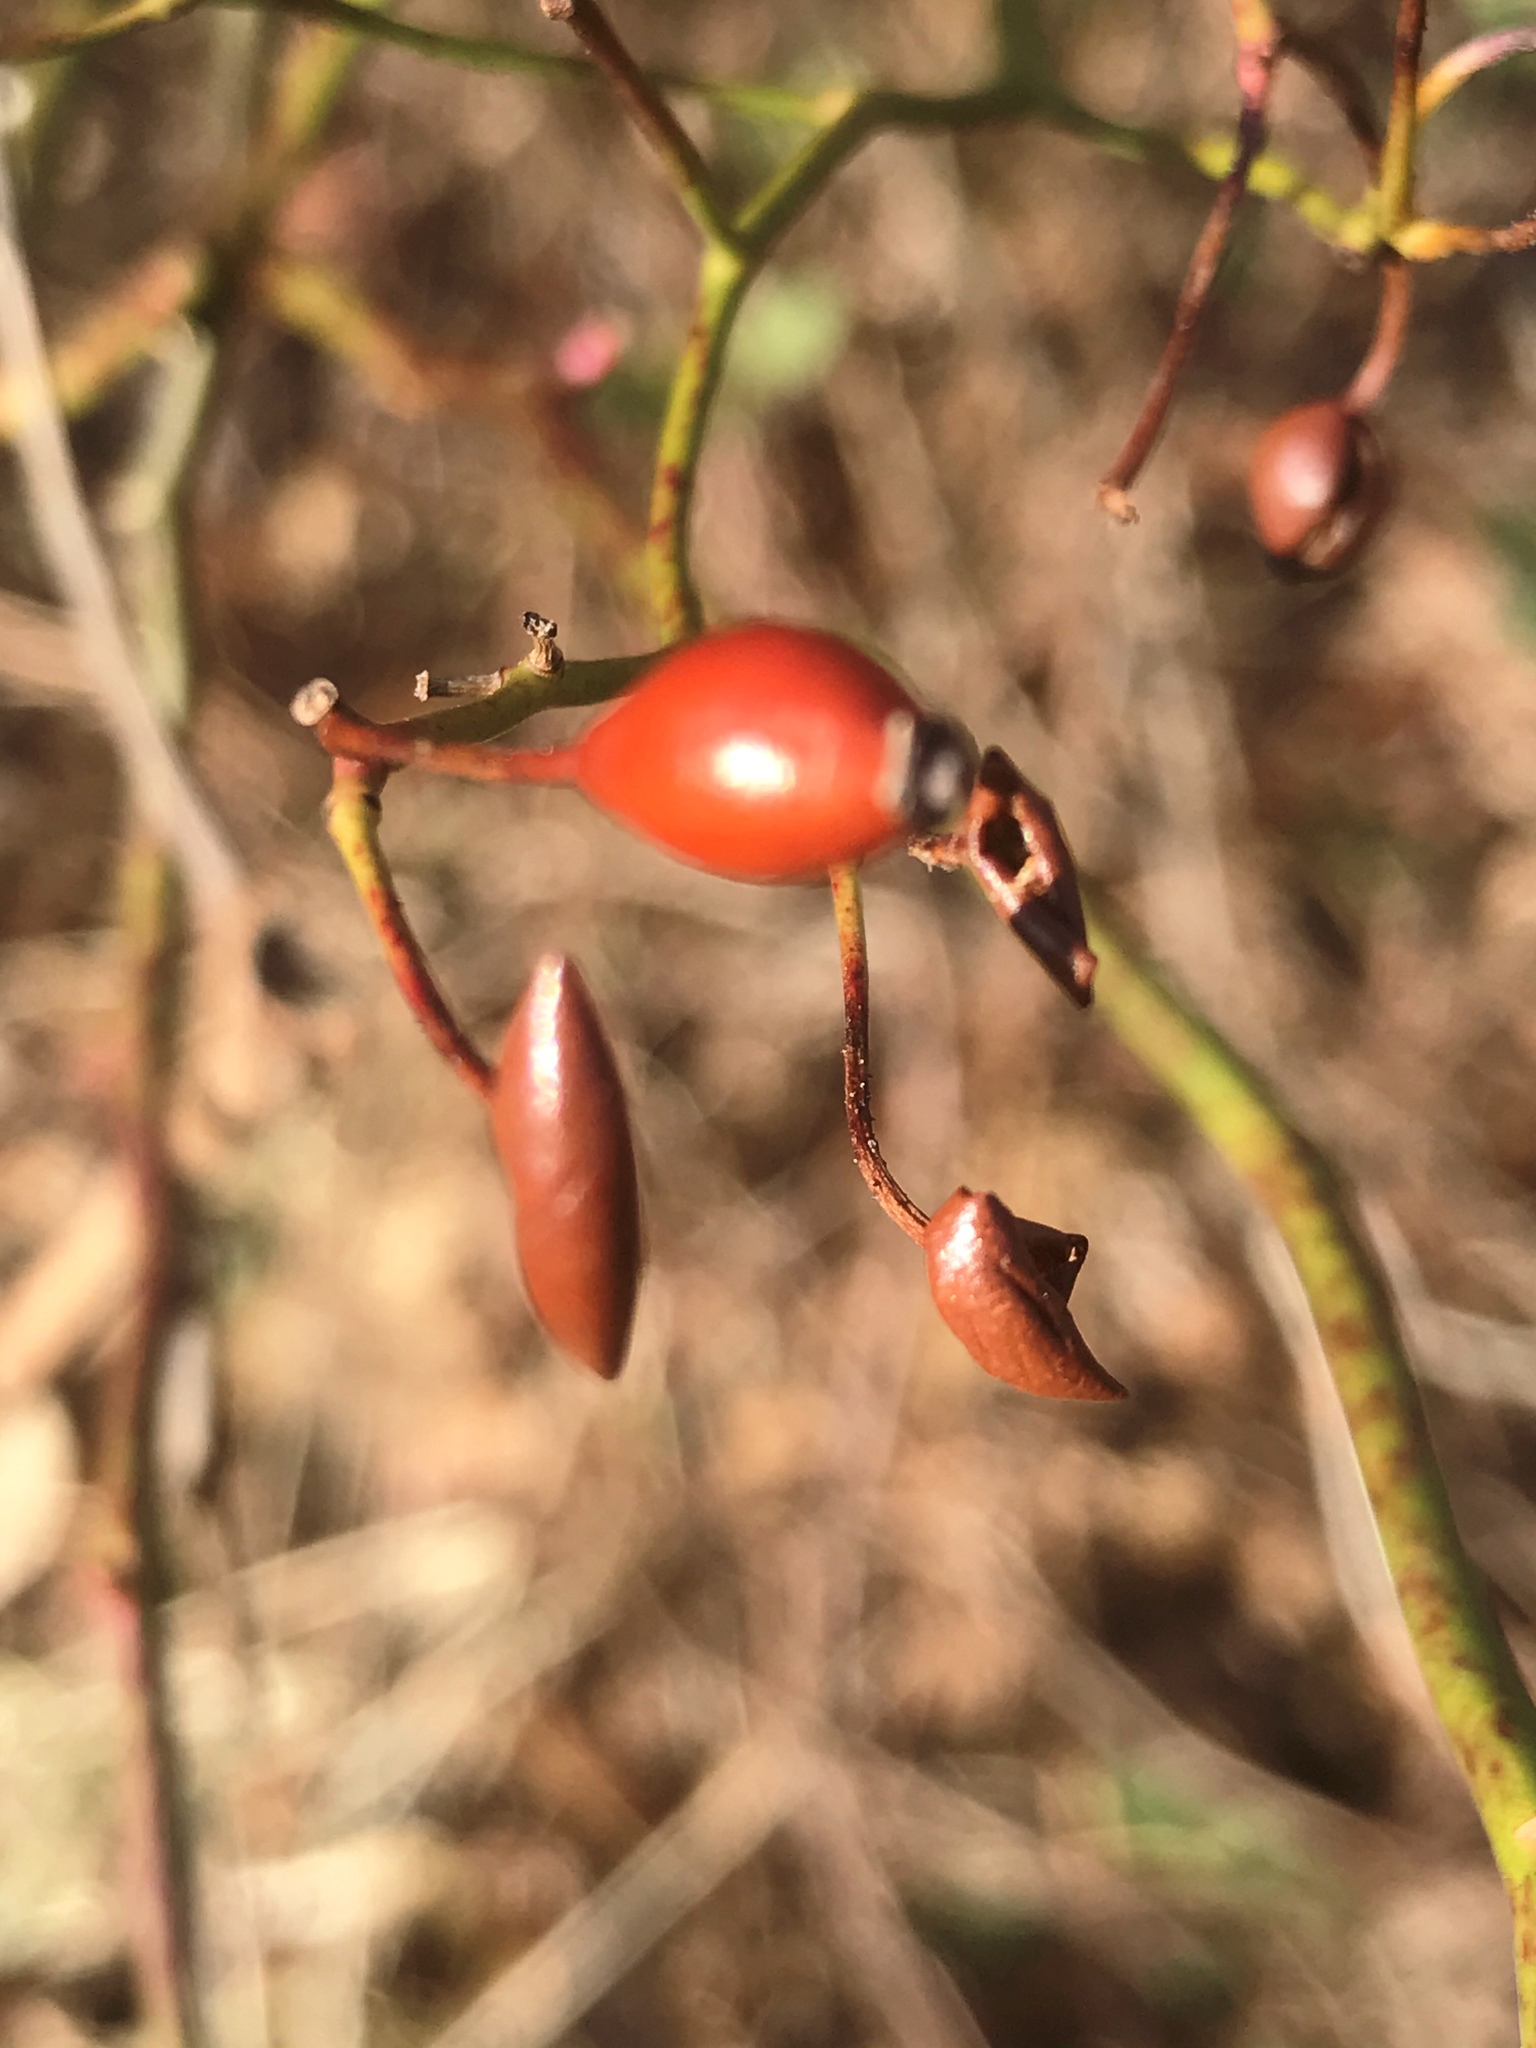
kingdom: Plantae
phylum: Tracheophyta
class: Magnoliopsida
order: Rosales
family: Rosaceae
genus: Rosa
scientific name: Rosa multiflora
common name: Multiflora rose
